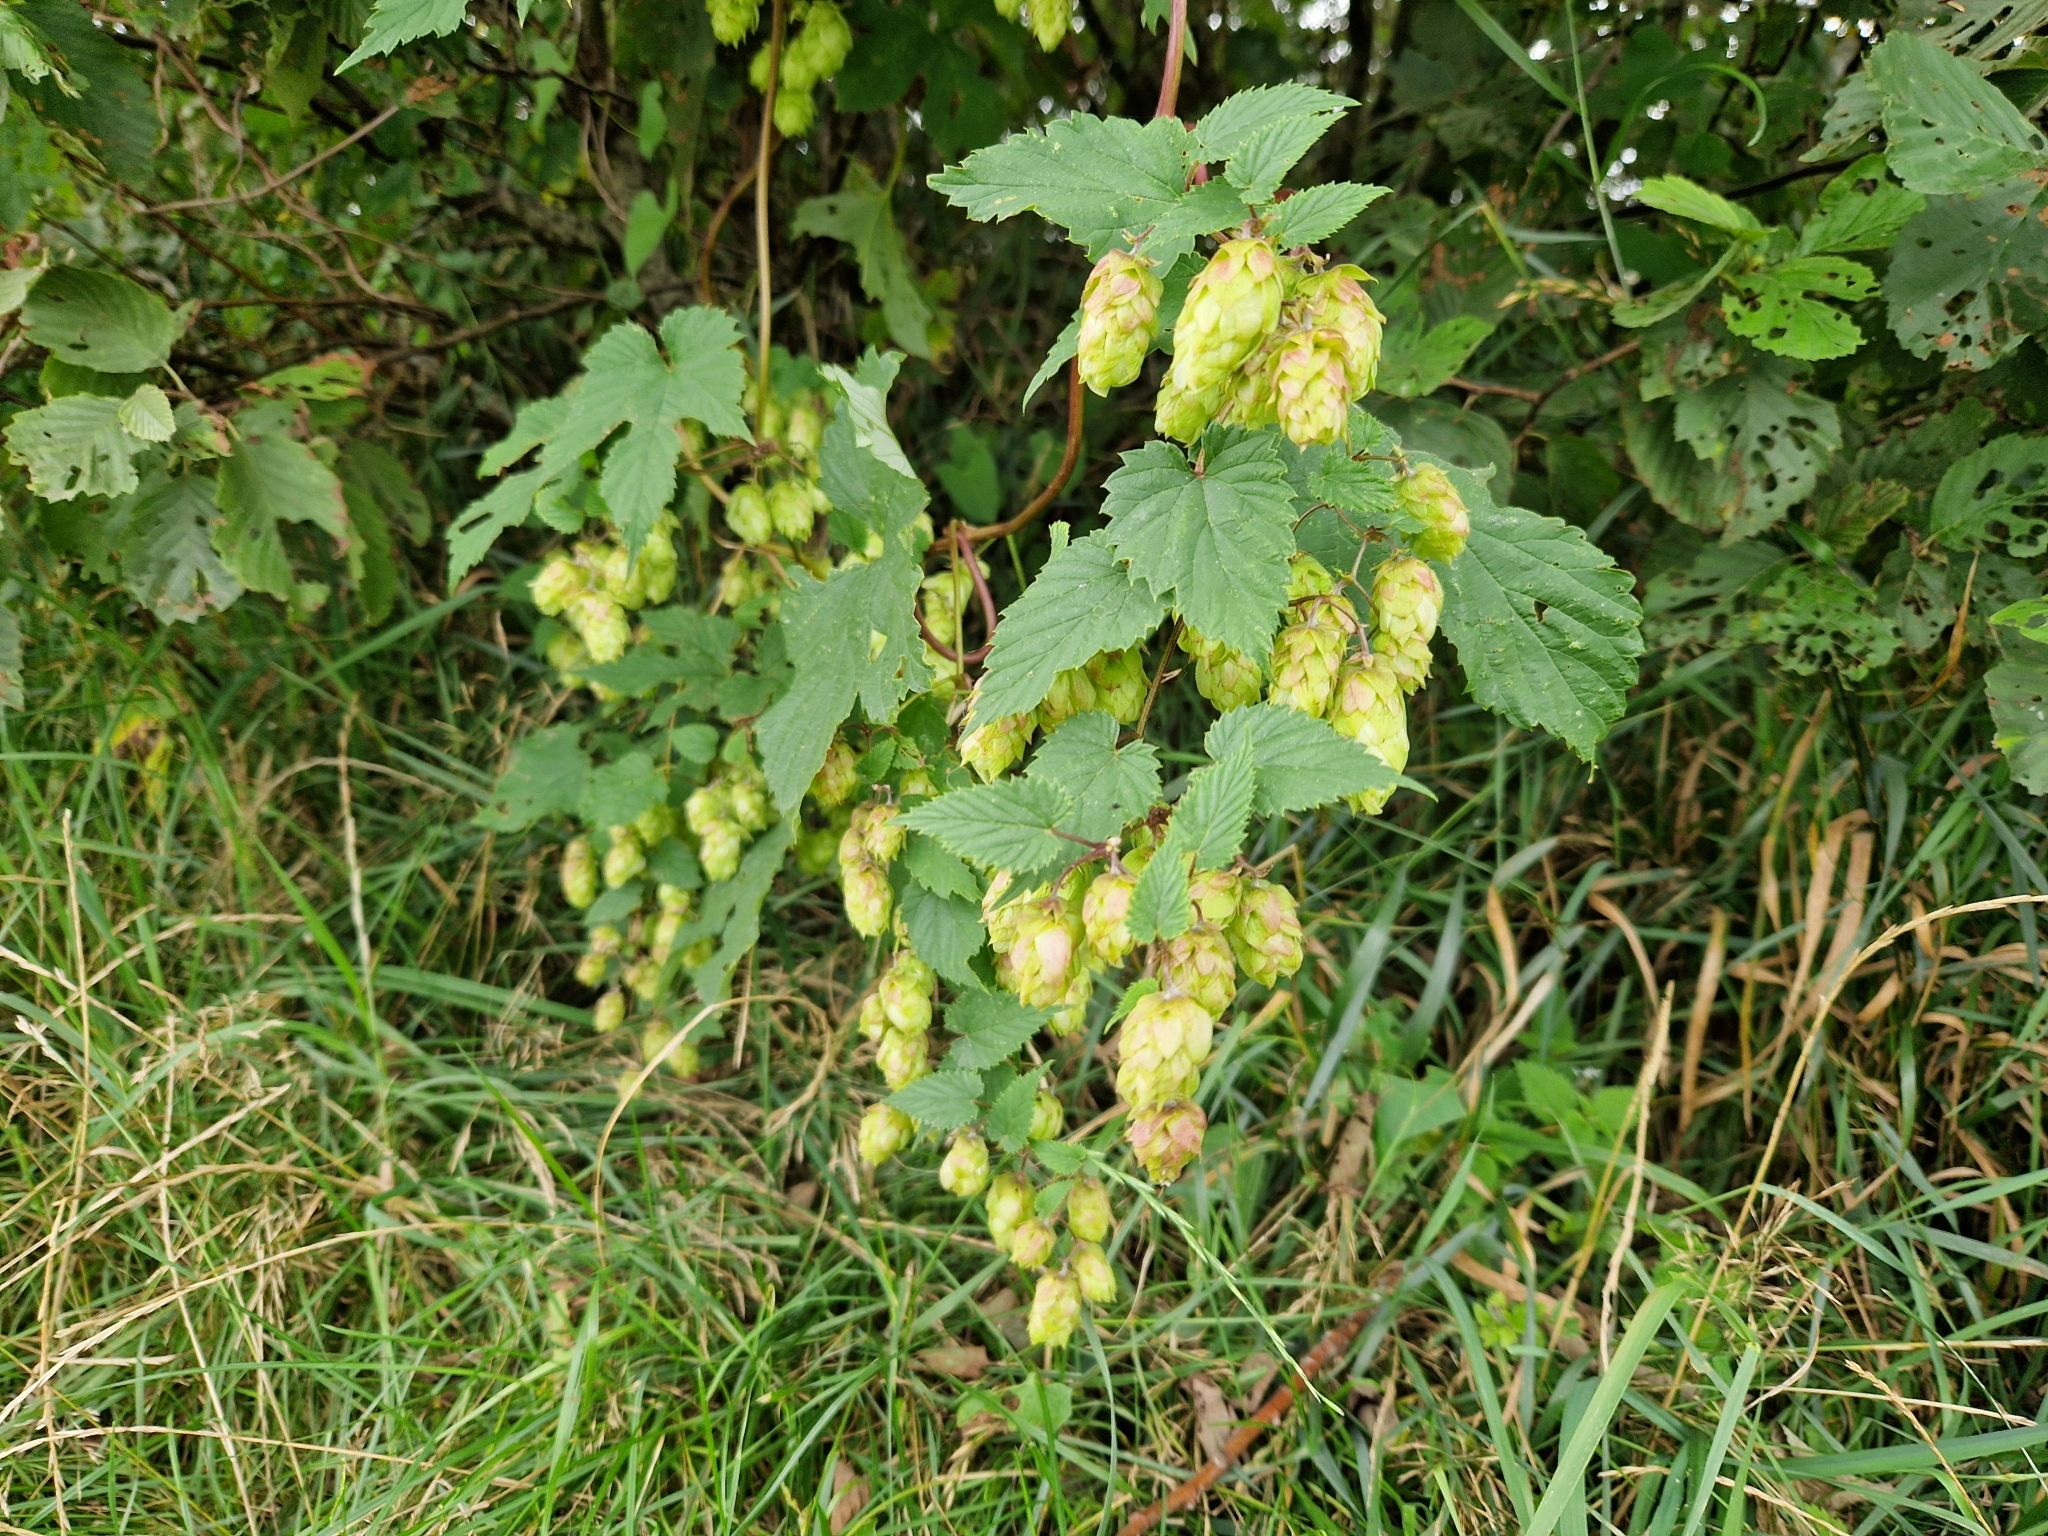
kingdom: Plantae
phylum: Tracheophyta
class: Magnoliopsida
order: Rosales
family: Cannabaceae
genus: Humulus
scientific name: Humulus lupulus
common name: Hop
